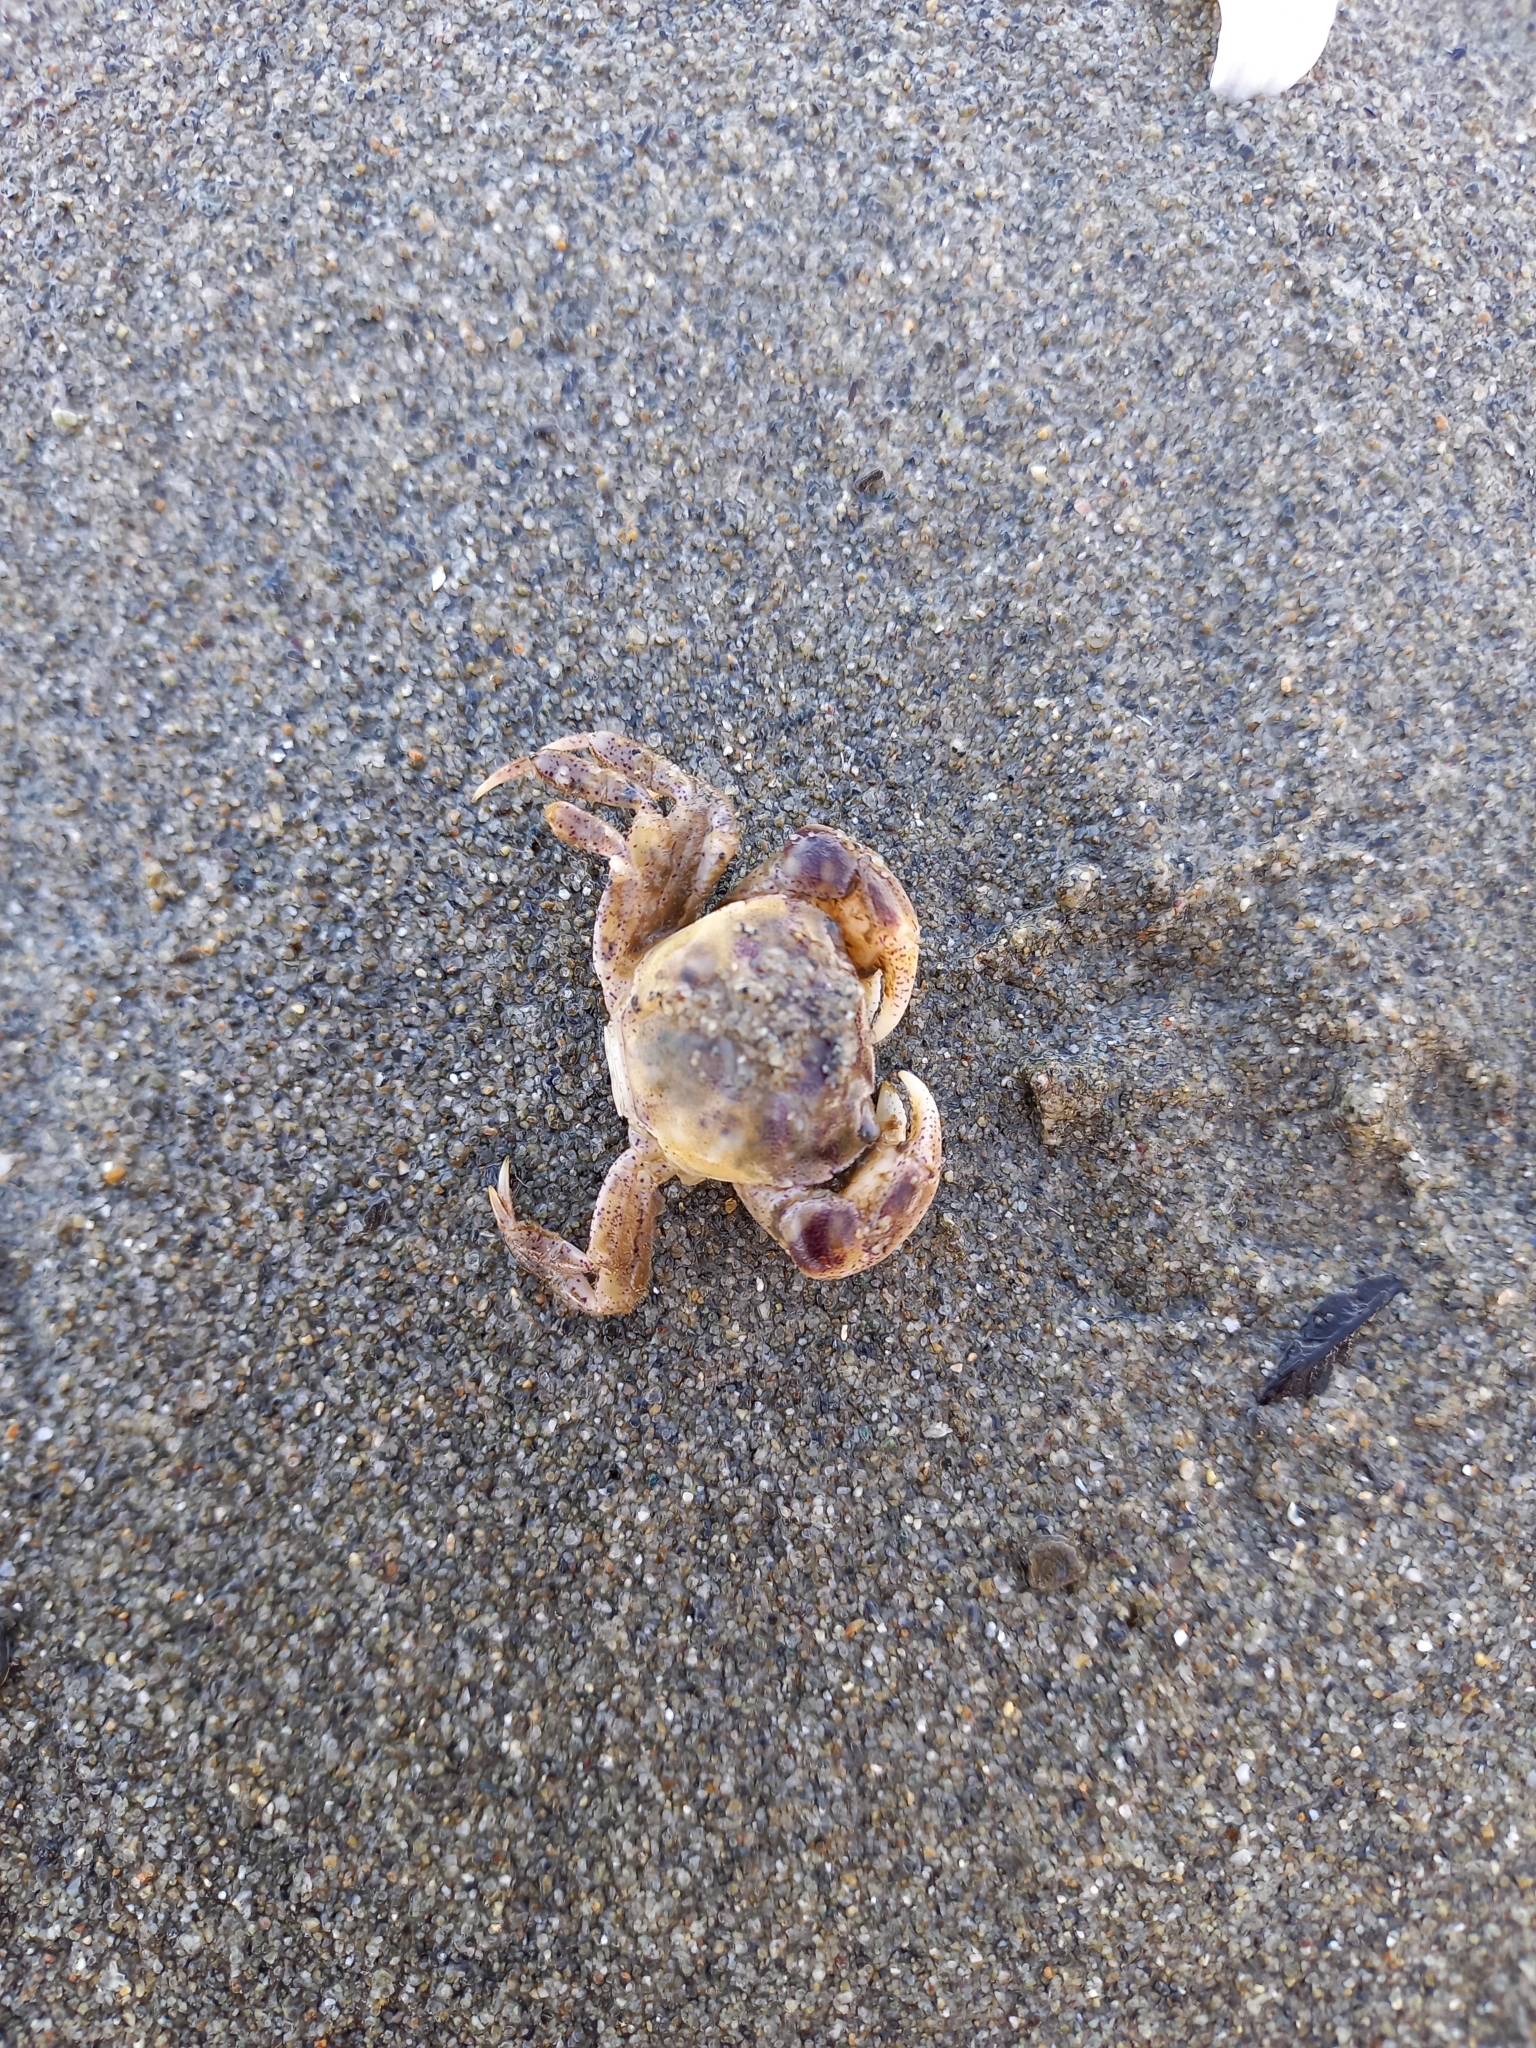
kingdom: Animalia
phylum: Arthropoda
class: Malacostraca
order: Decapoda
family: Varunidae
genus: Hemigrapsus
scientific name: Hemigrapsus crenulatus
